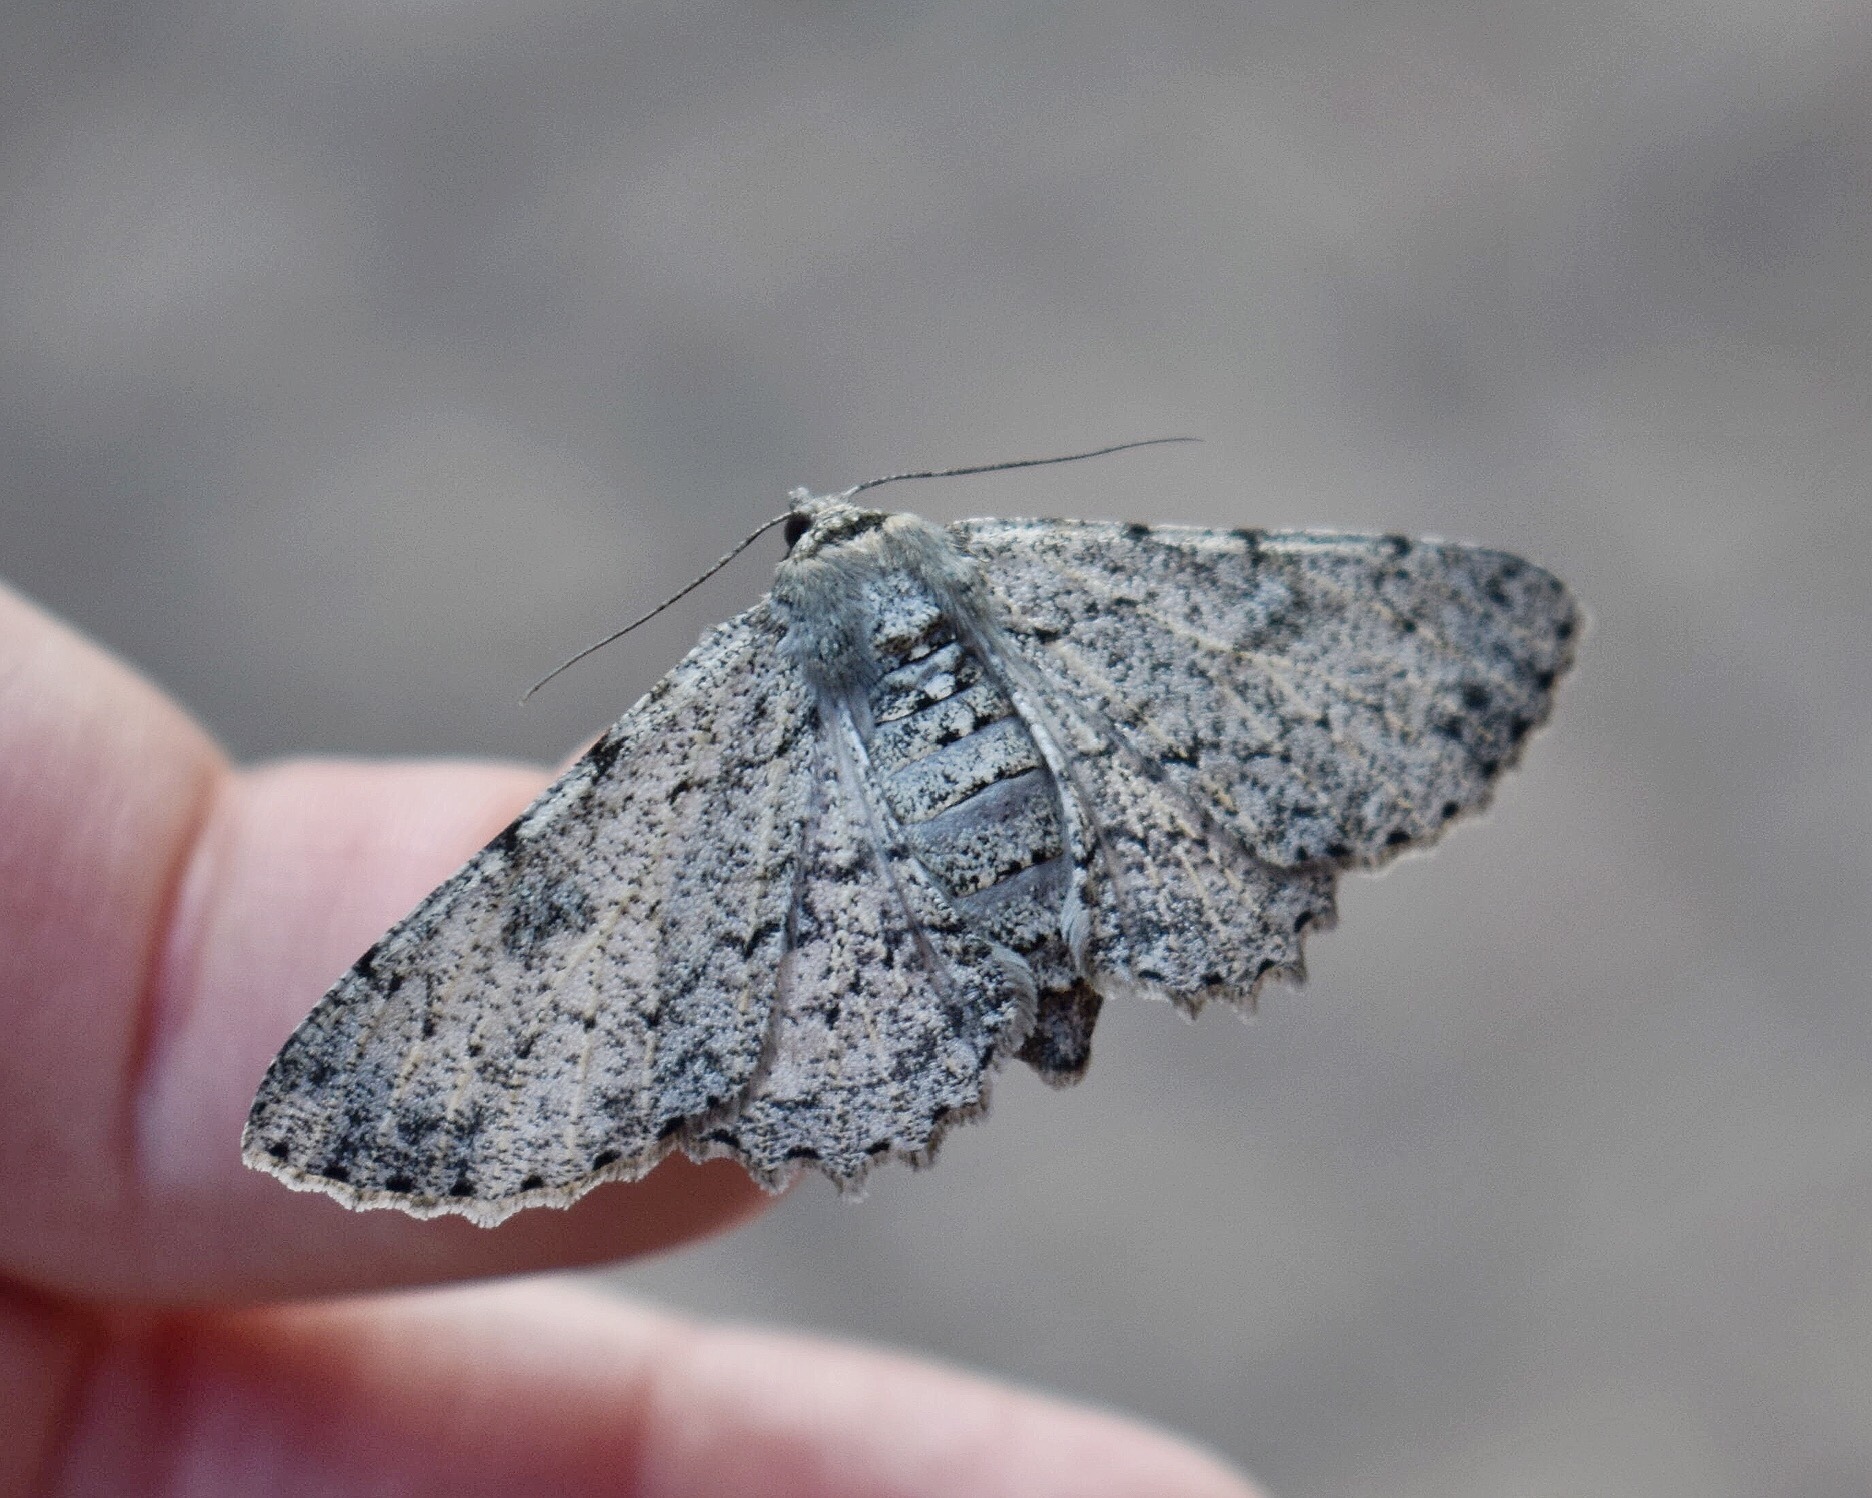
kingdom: Animalia
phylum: Arthropoda
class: Insecta
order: Lepidoptera
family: Geometridae
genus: Ascotis
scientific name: Ascotis reciprocaria
